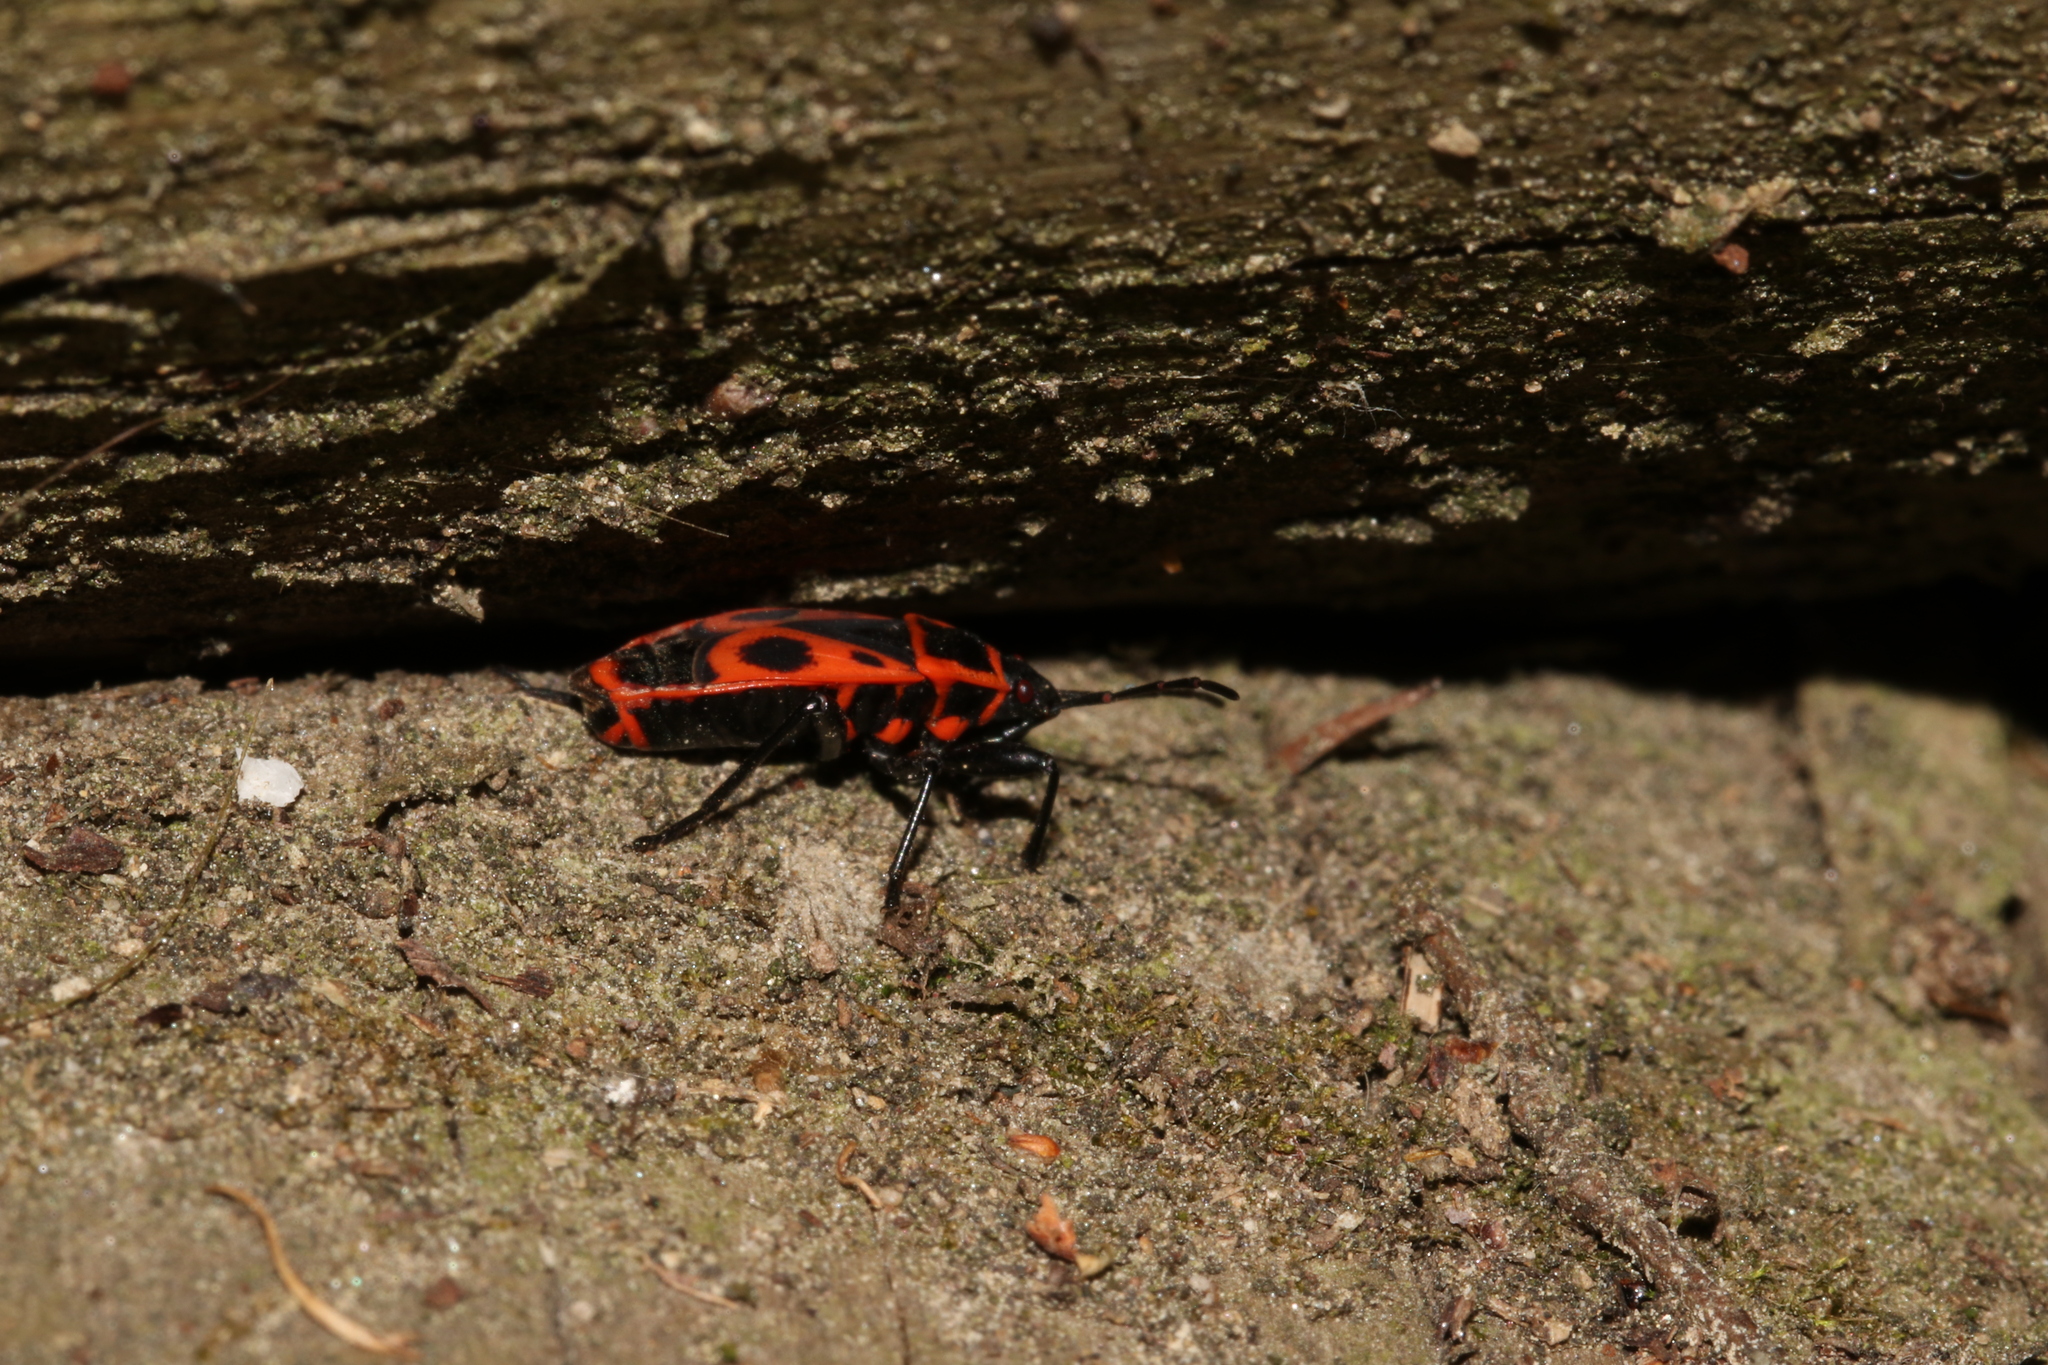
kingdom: Animalia
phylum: Arthropoda
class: Insecta
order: Hemiptera
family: Pyrrhocoridae
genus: Pyrrhocoris
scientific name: Pyrrhocoris apterus
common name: Firebug
